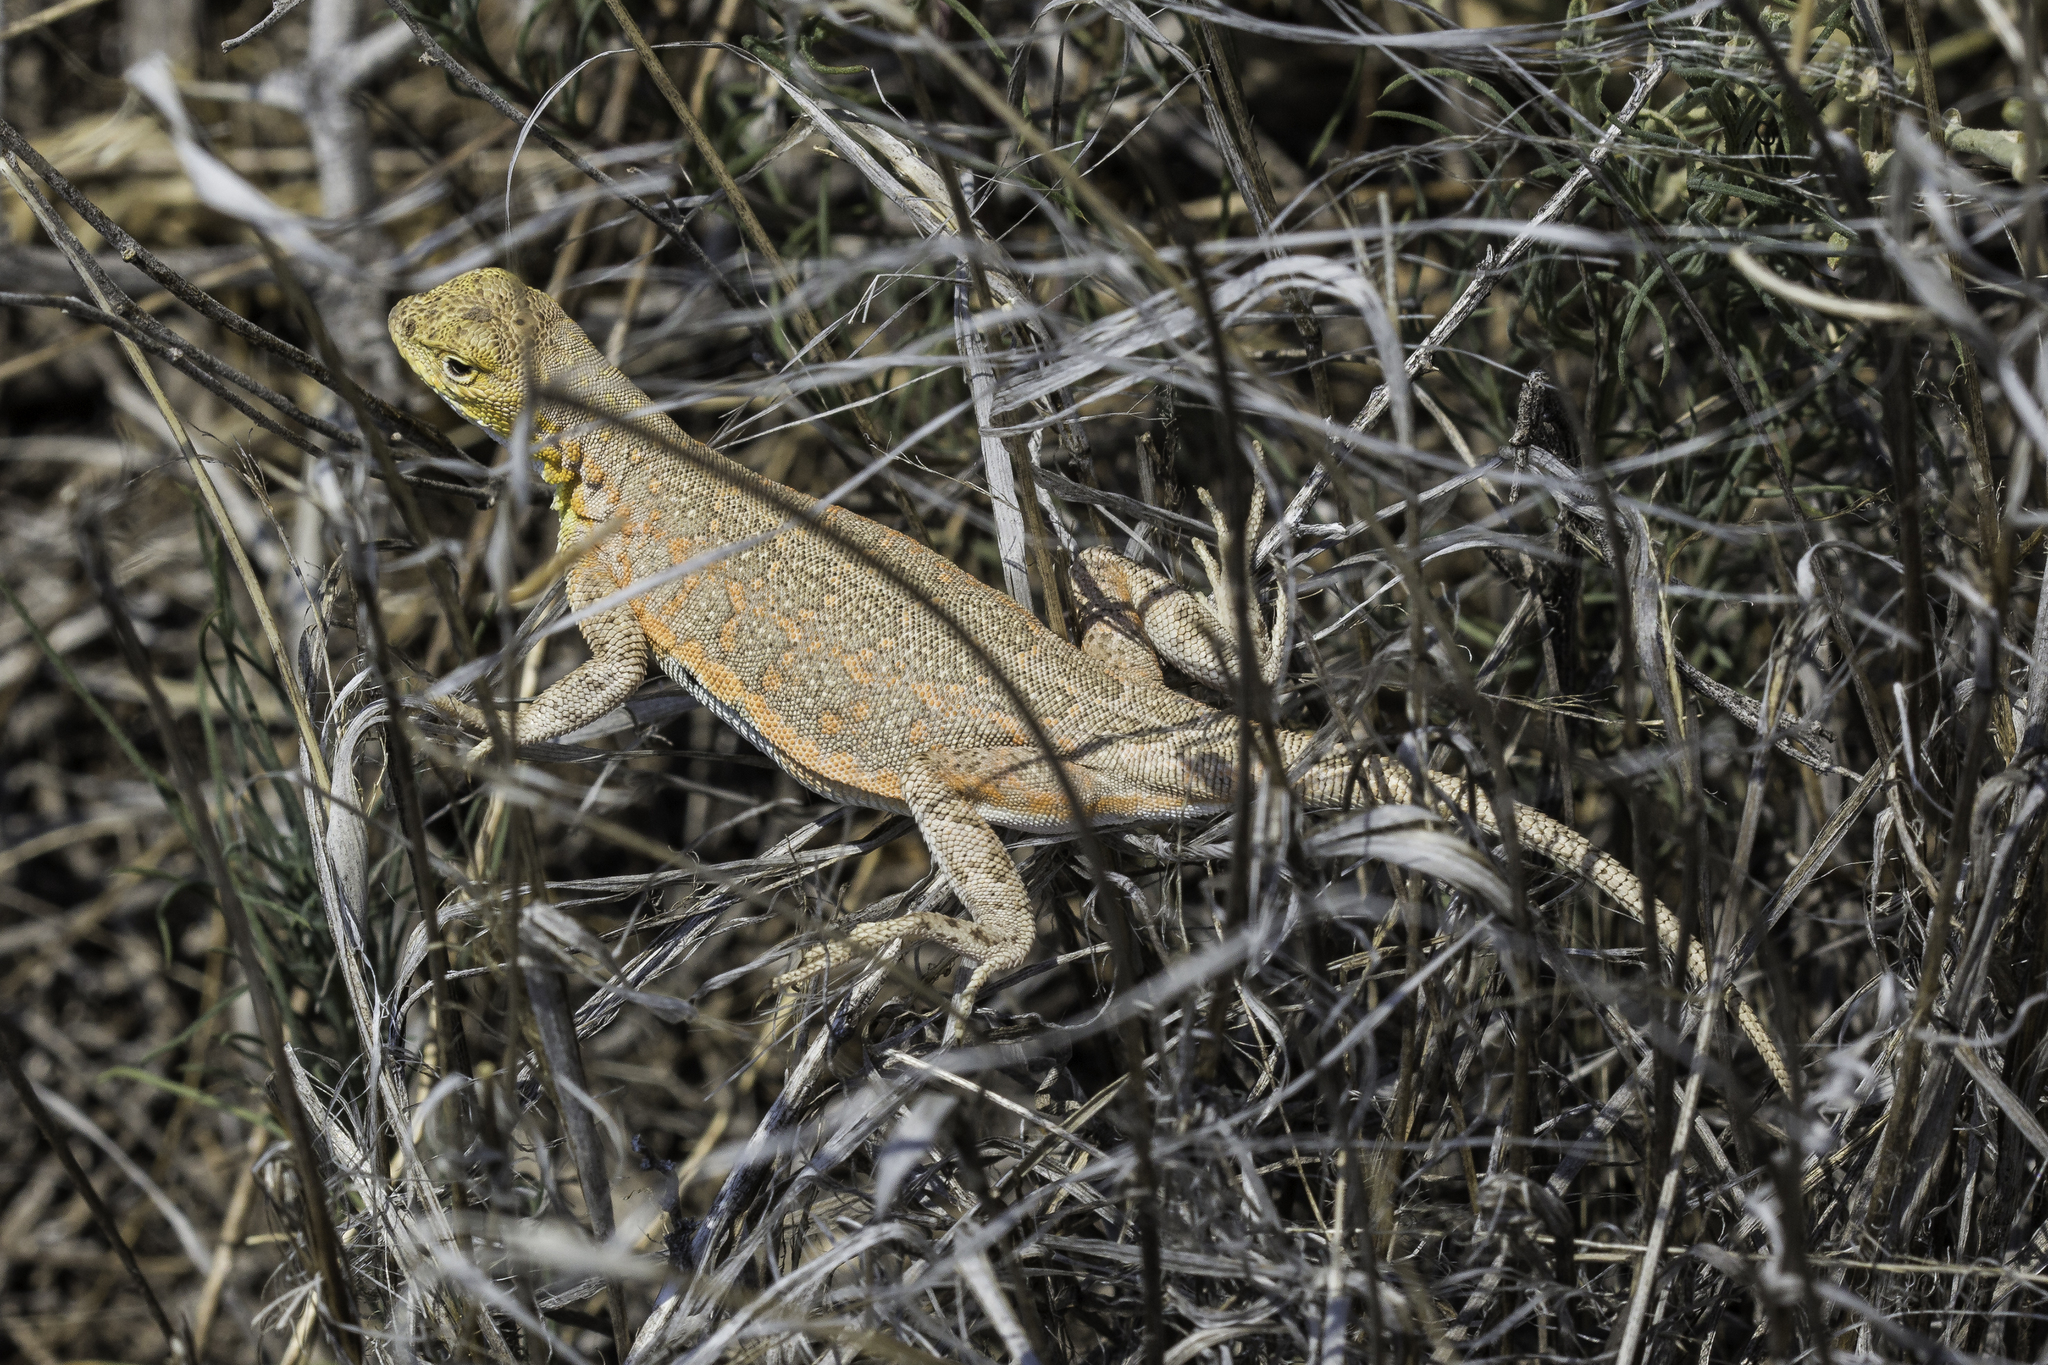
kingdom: Animalia
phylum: Chordata
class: Squamata
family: Phrynosomatidae
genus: Holbrookia
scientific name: Holbrookia maculata
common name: Lesser earless lizard
